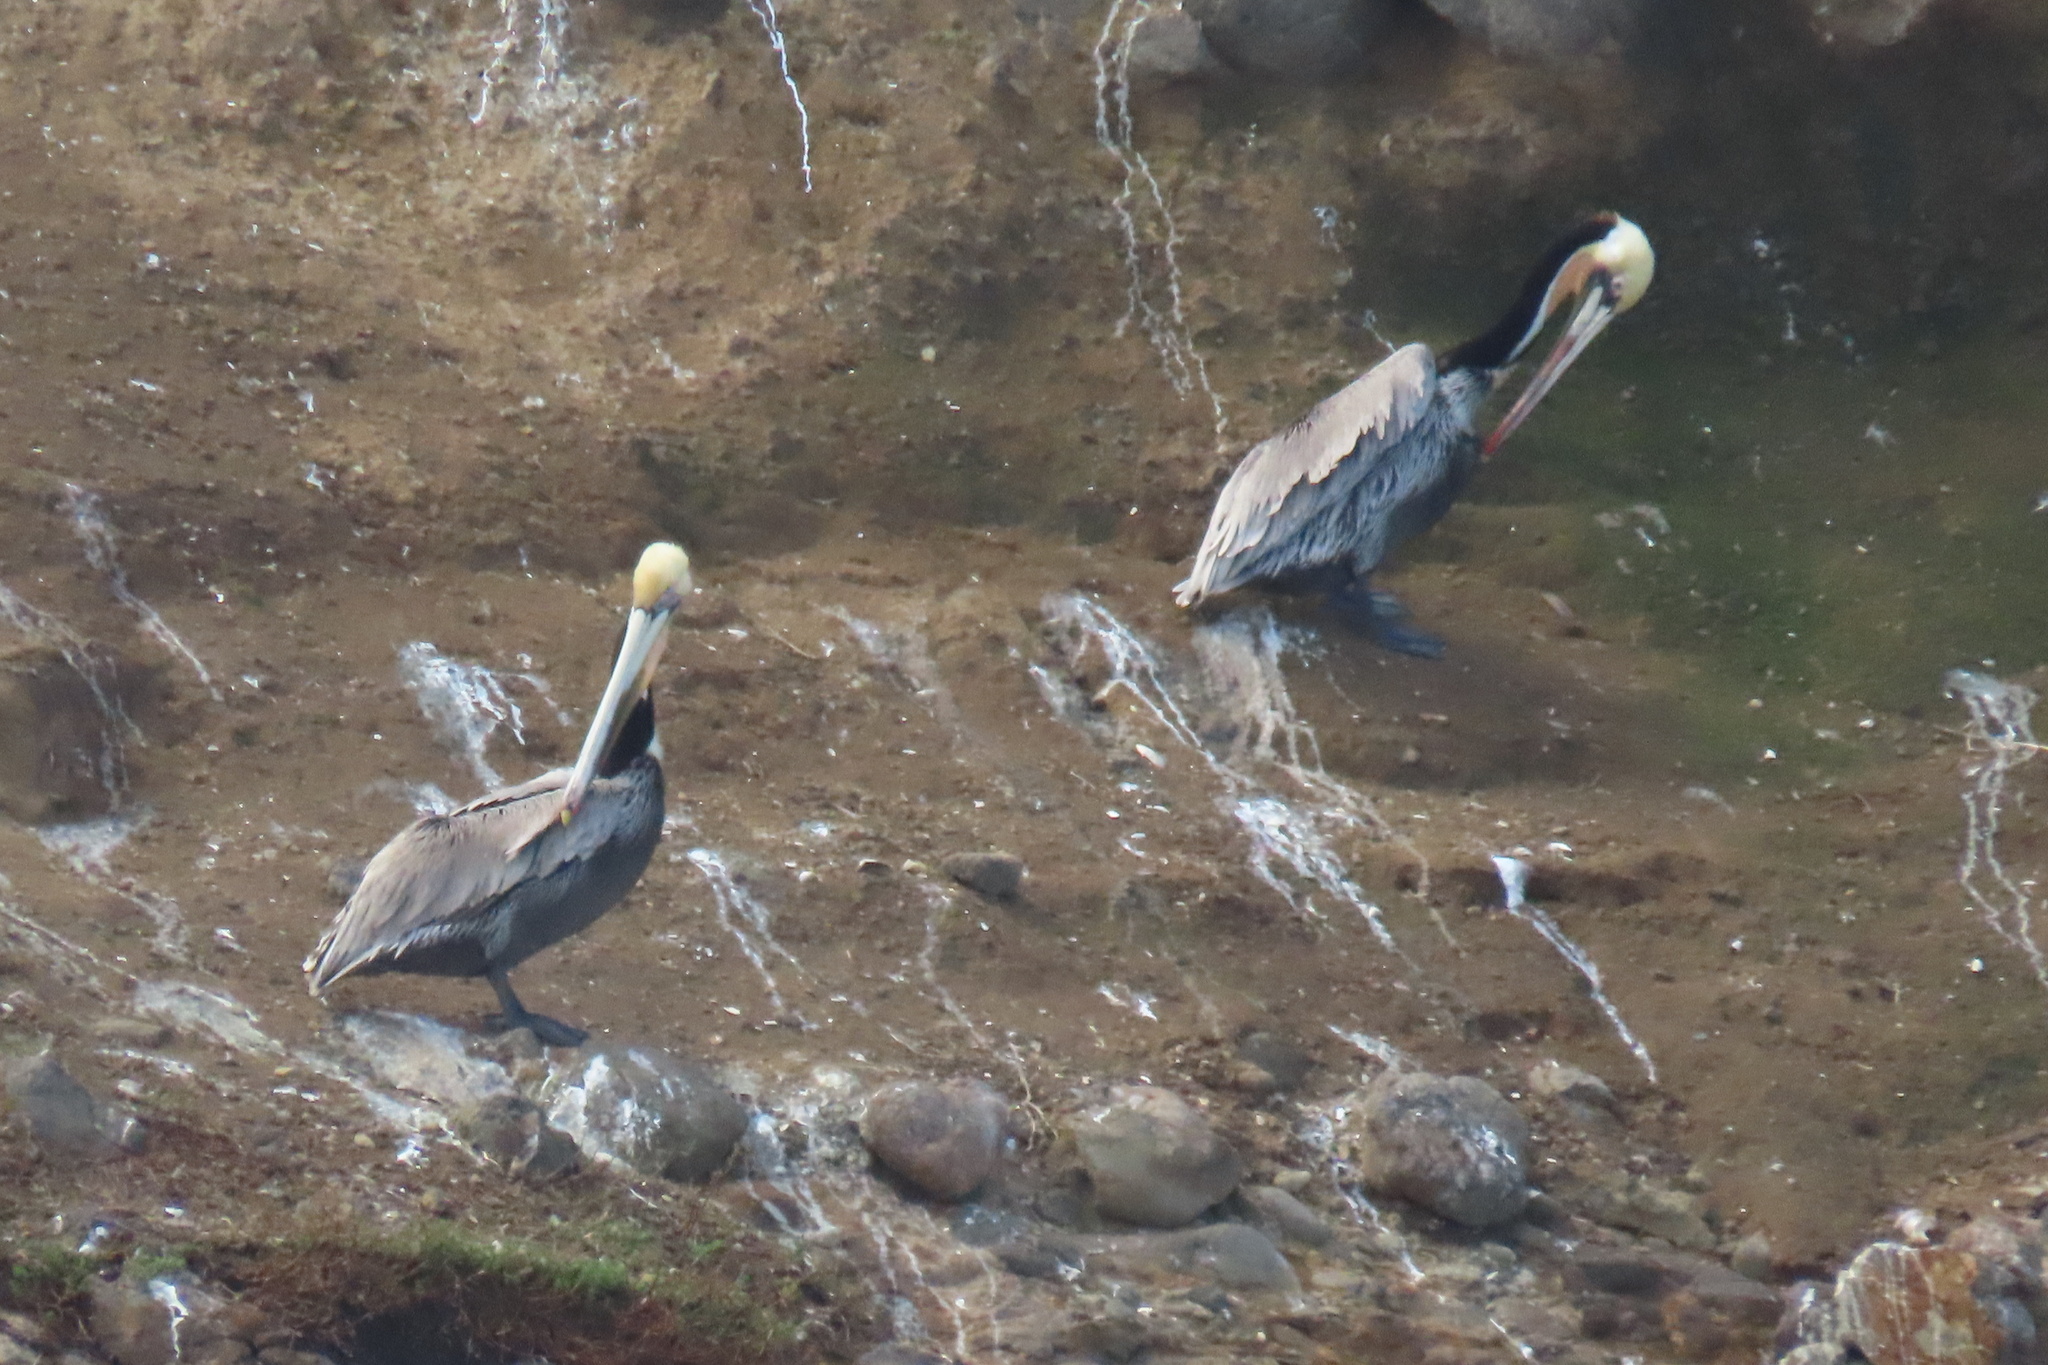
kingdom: Animalia
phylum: Chordata
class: Aves
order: Pelecaniformes
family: Pelecanidae
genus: Pelecanus
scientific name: Pelecanus occidentalis
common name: Brown pelican
